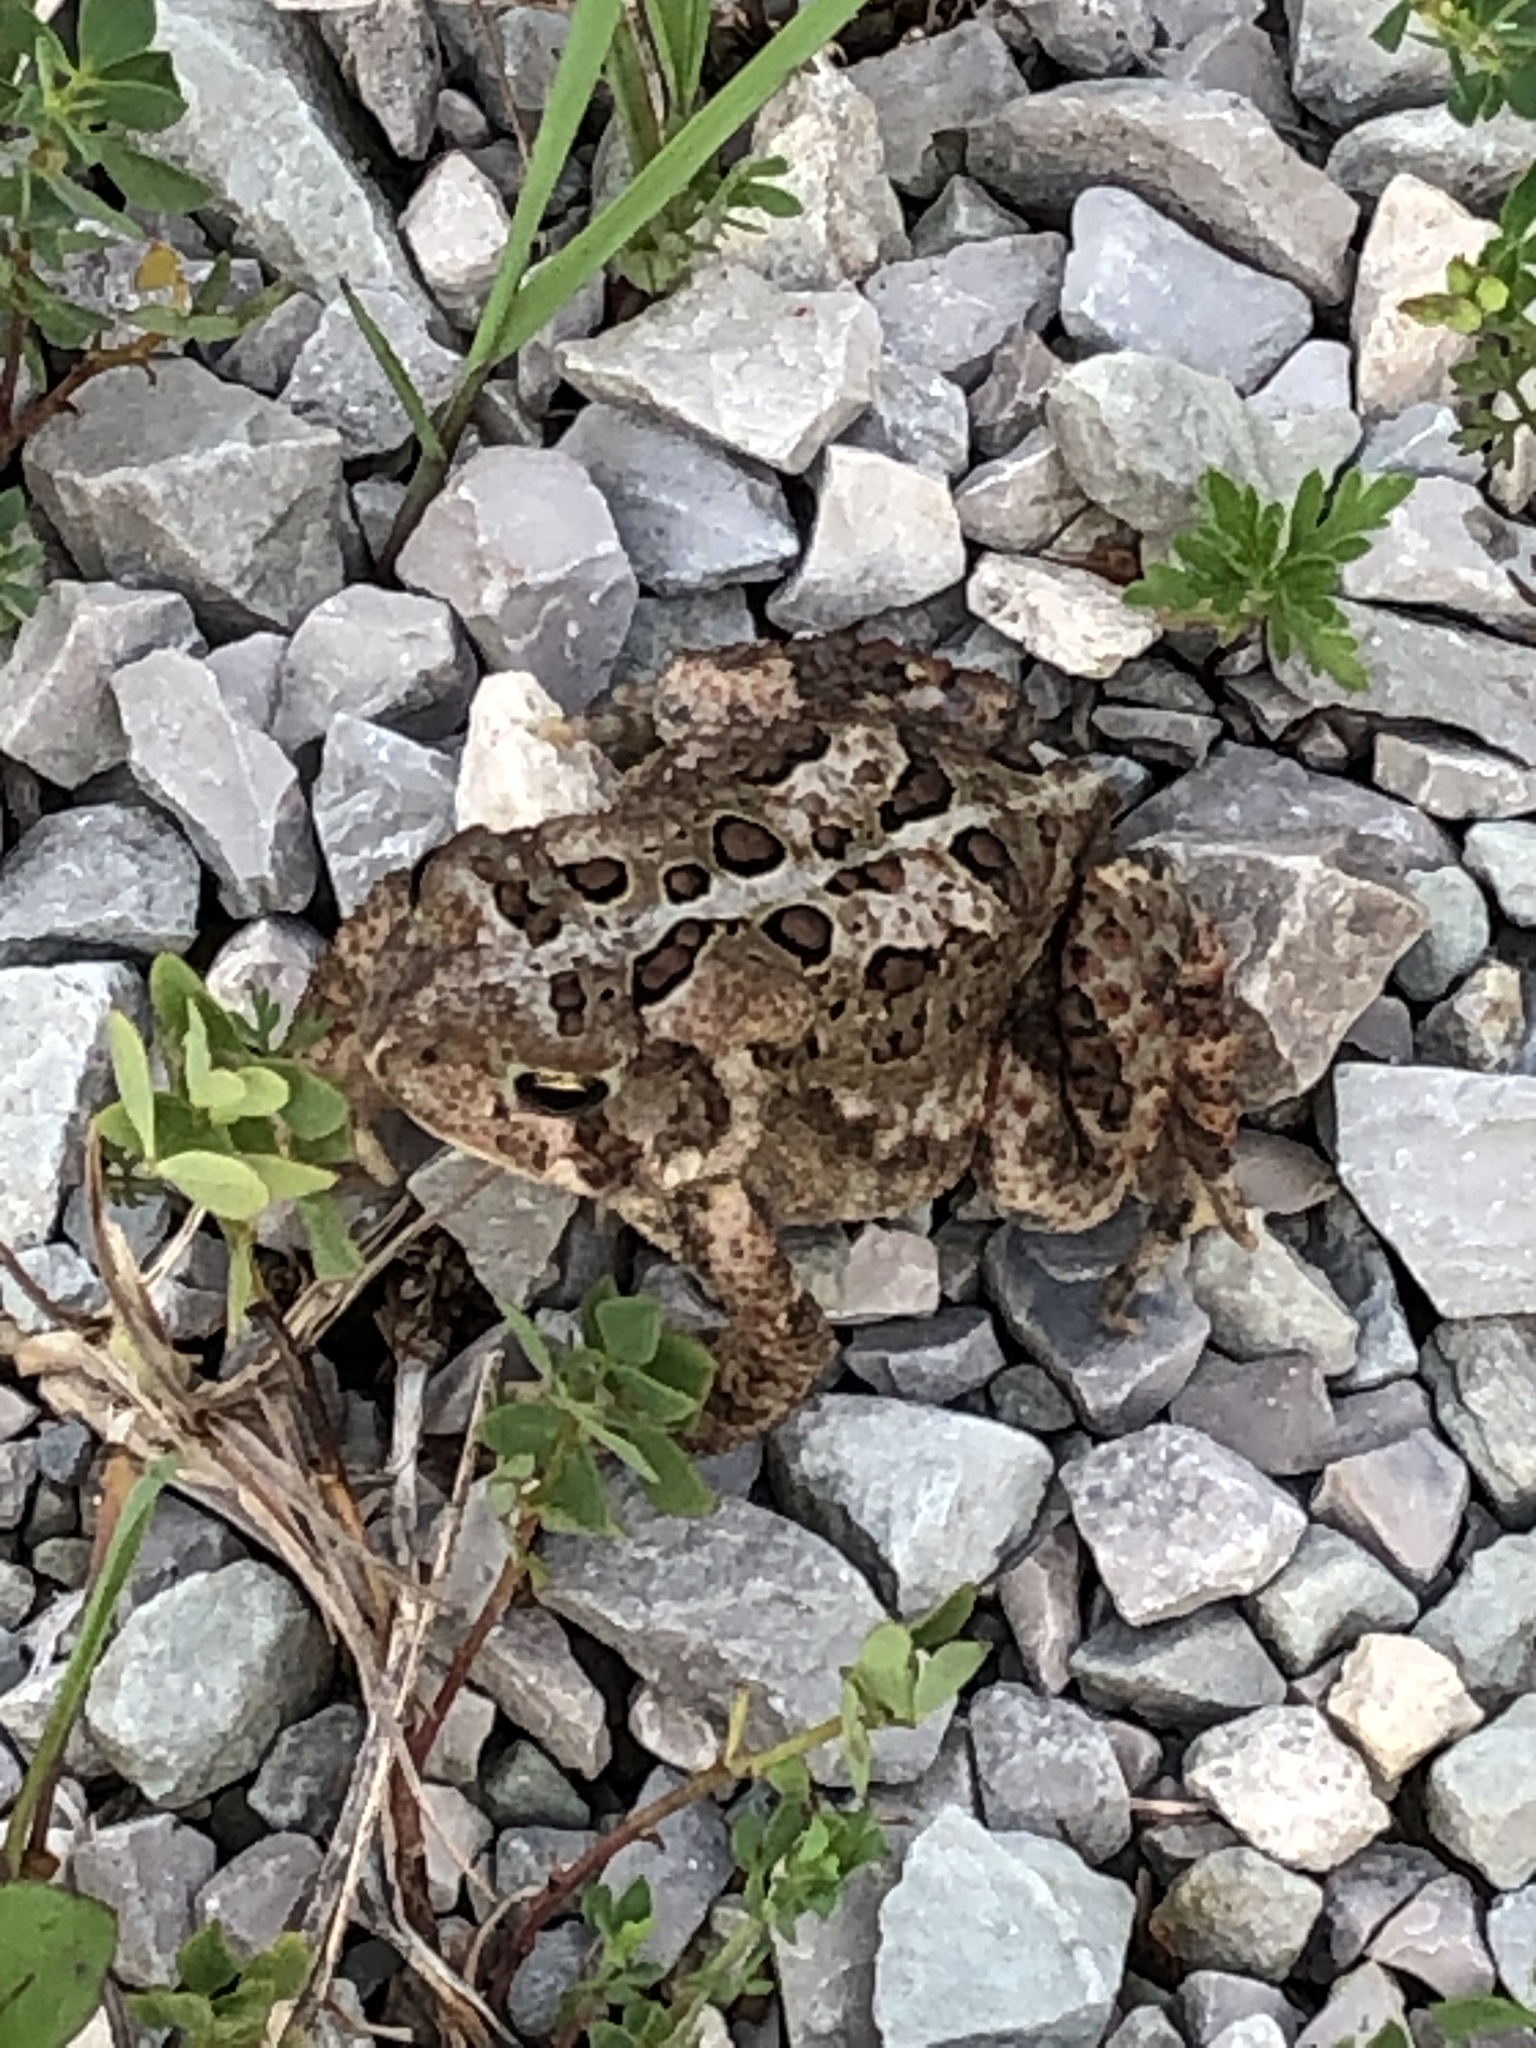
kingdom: Animalia
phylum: Chordata
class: Amphibia
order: Anura
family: Bufonidae
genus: Anaxyrus
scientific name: Anaxyrus americanus
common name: American toad
